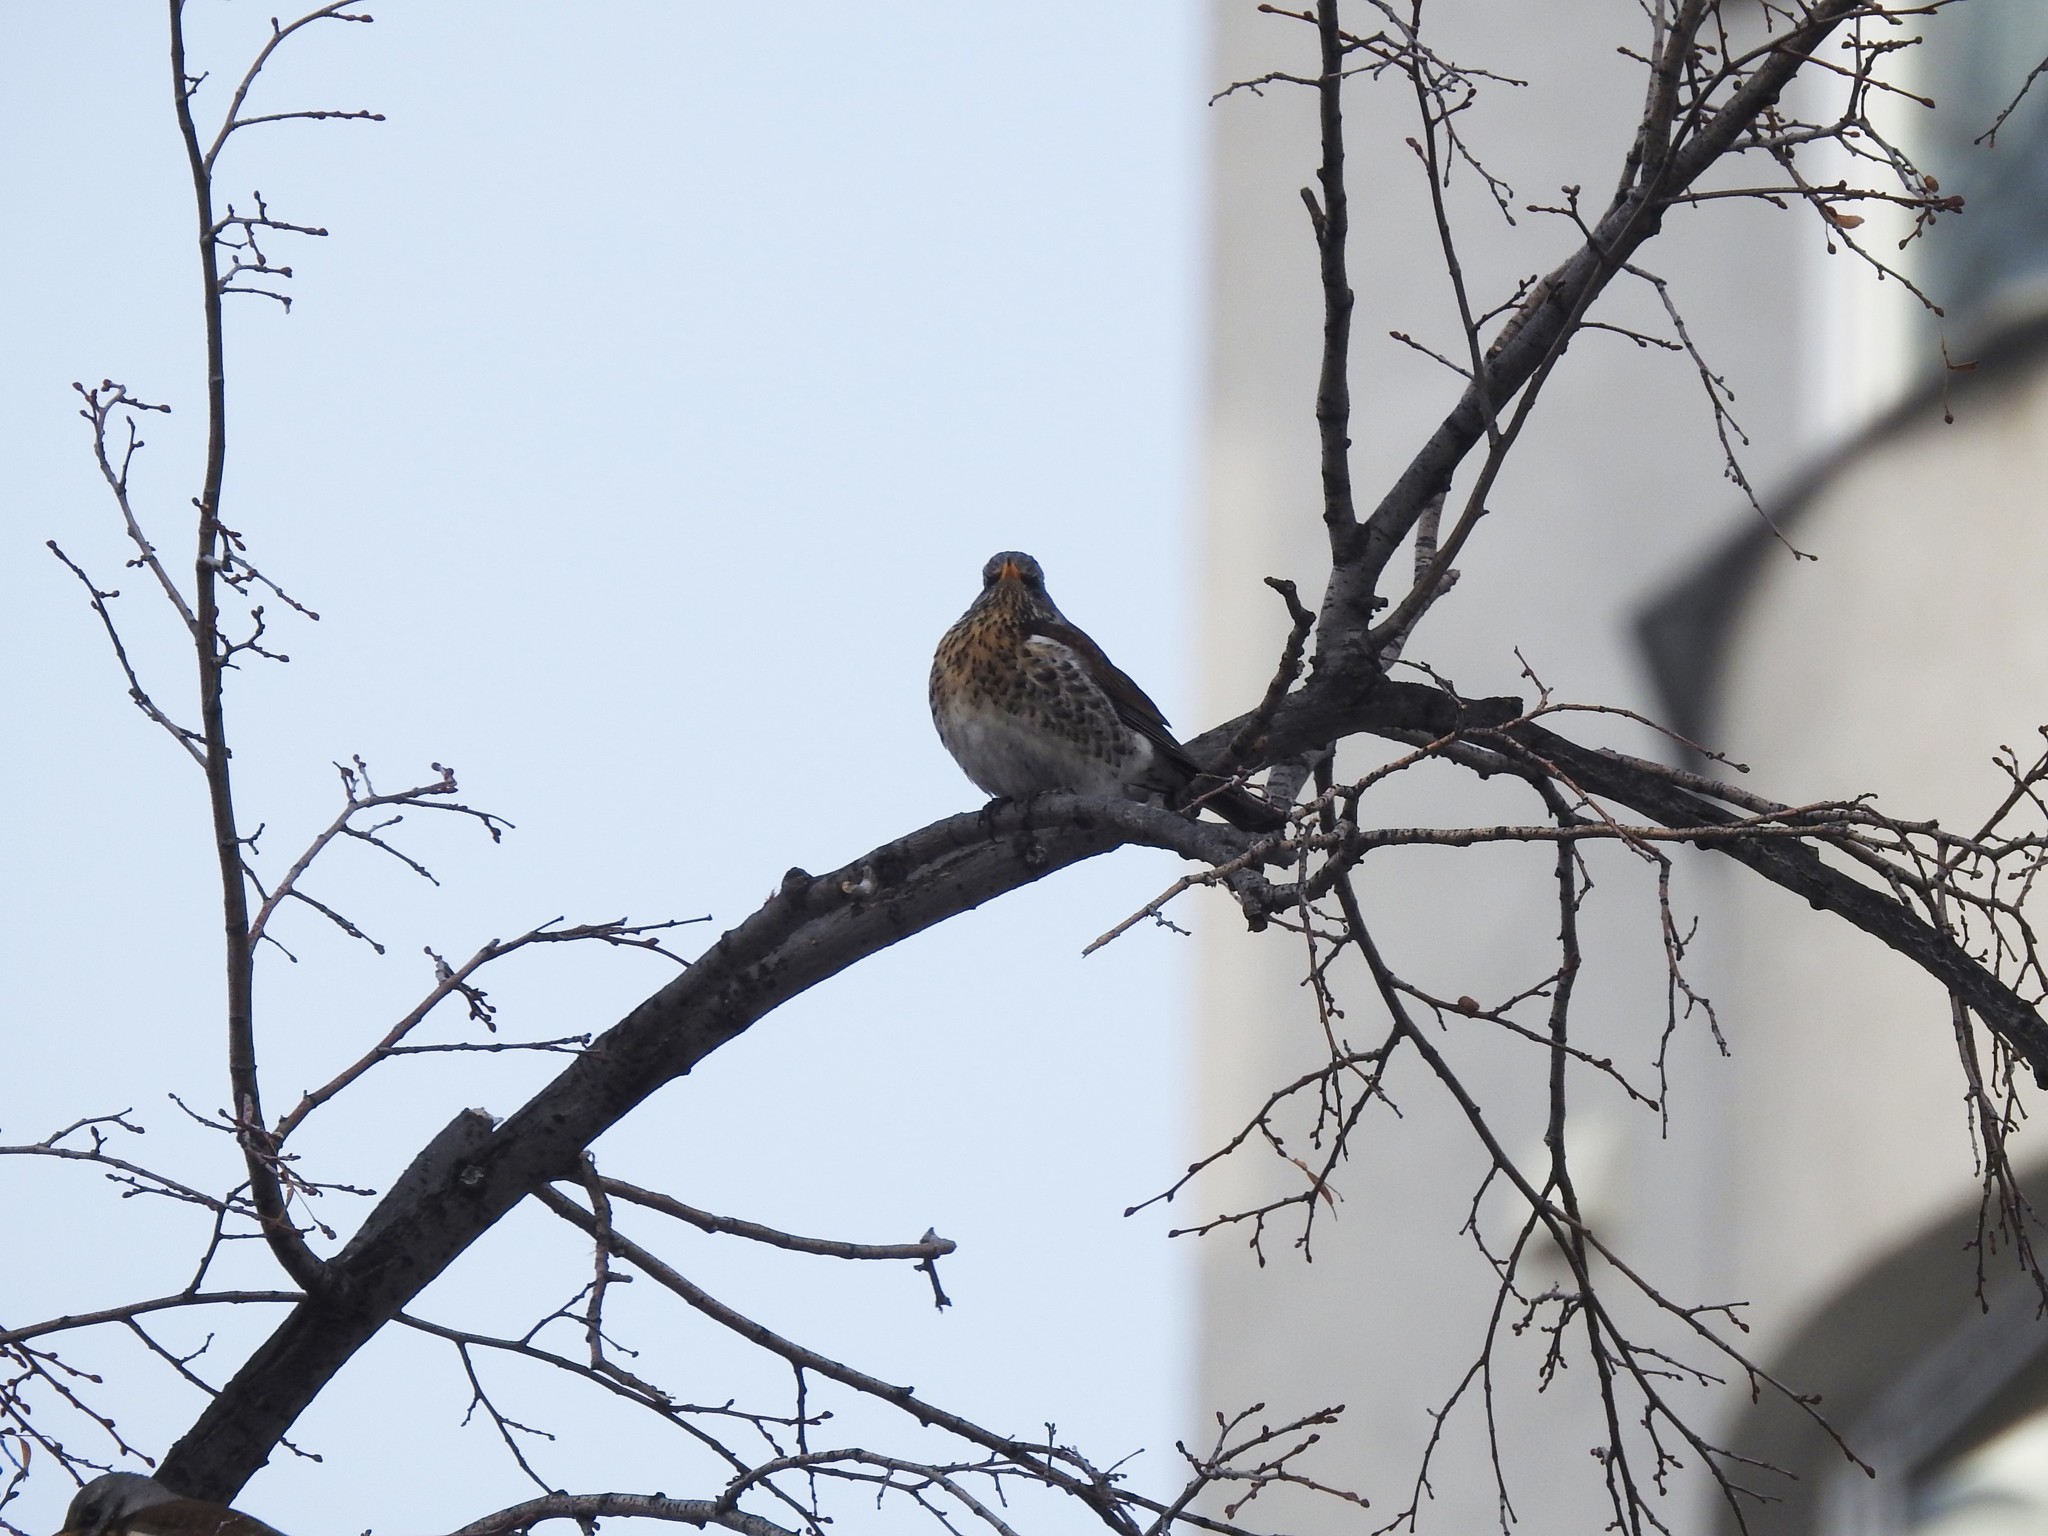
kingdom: Animalia
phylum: Chordata
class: Aves
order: Passeriformes
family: Turdidae
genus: Turdus
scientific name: Turdus pilaris
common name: Fieldfare
